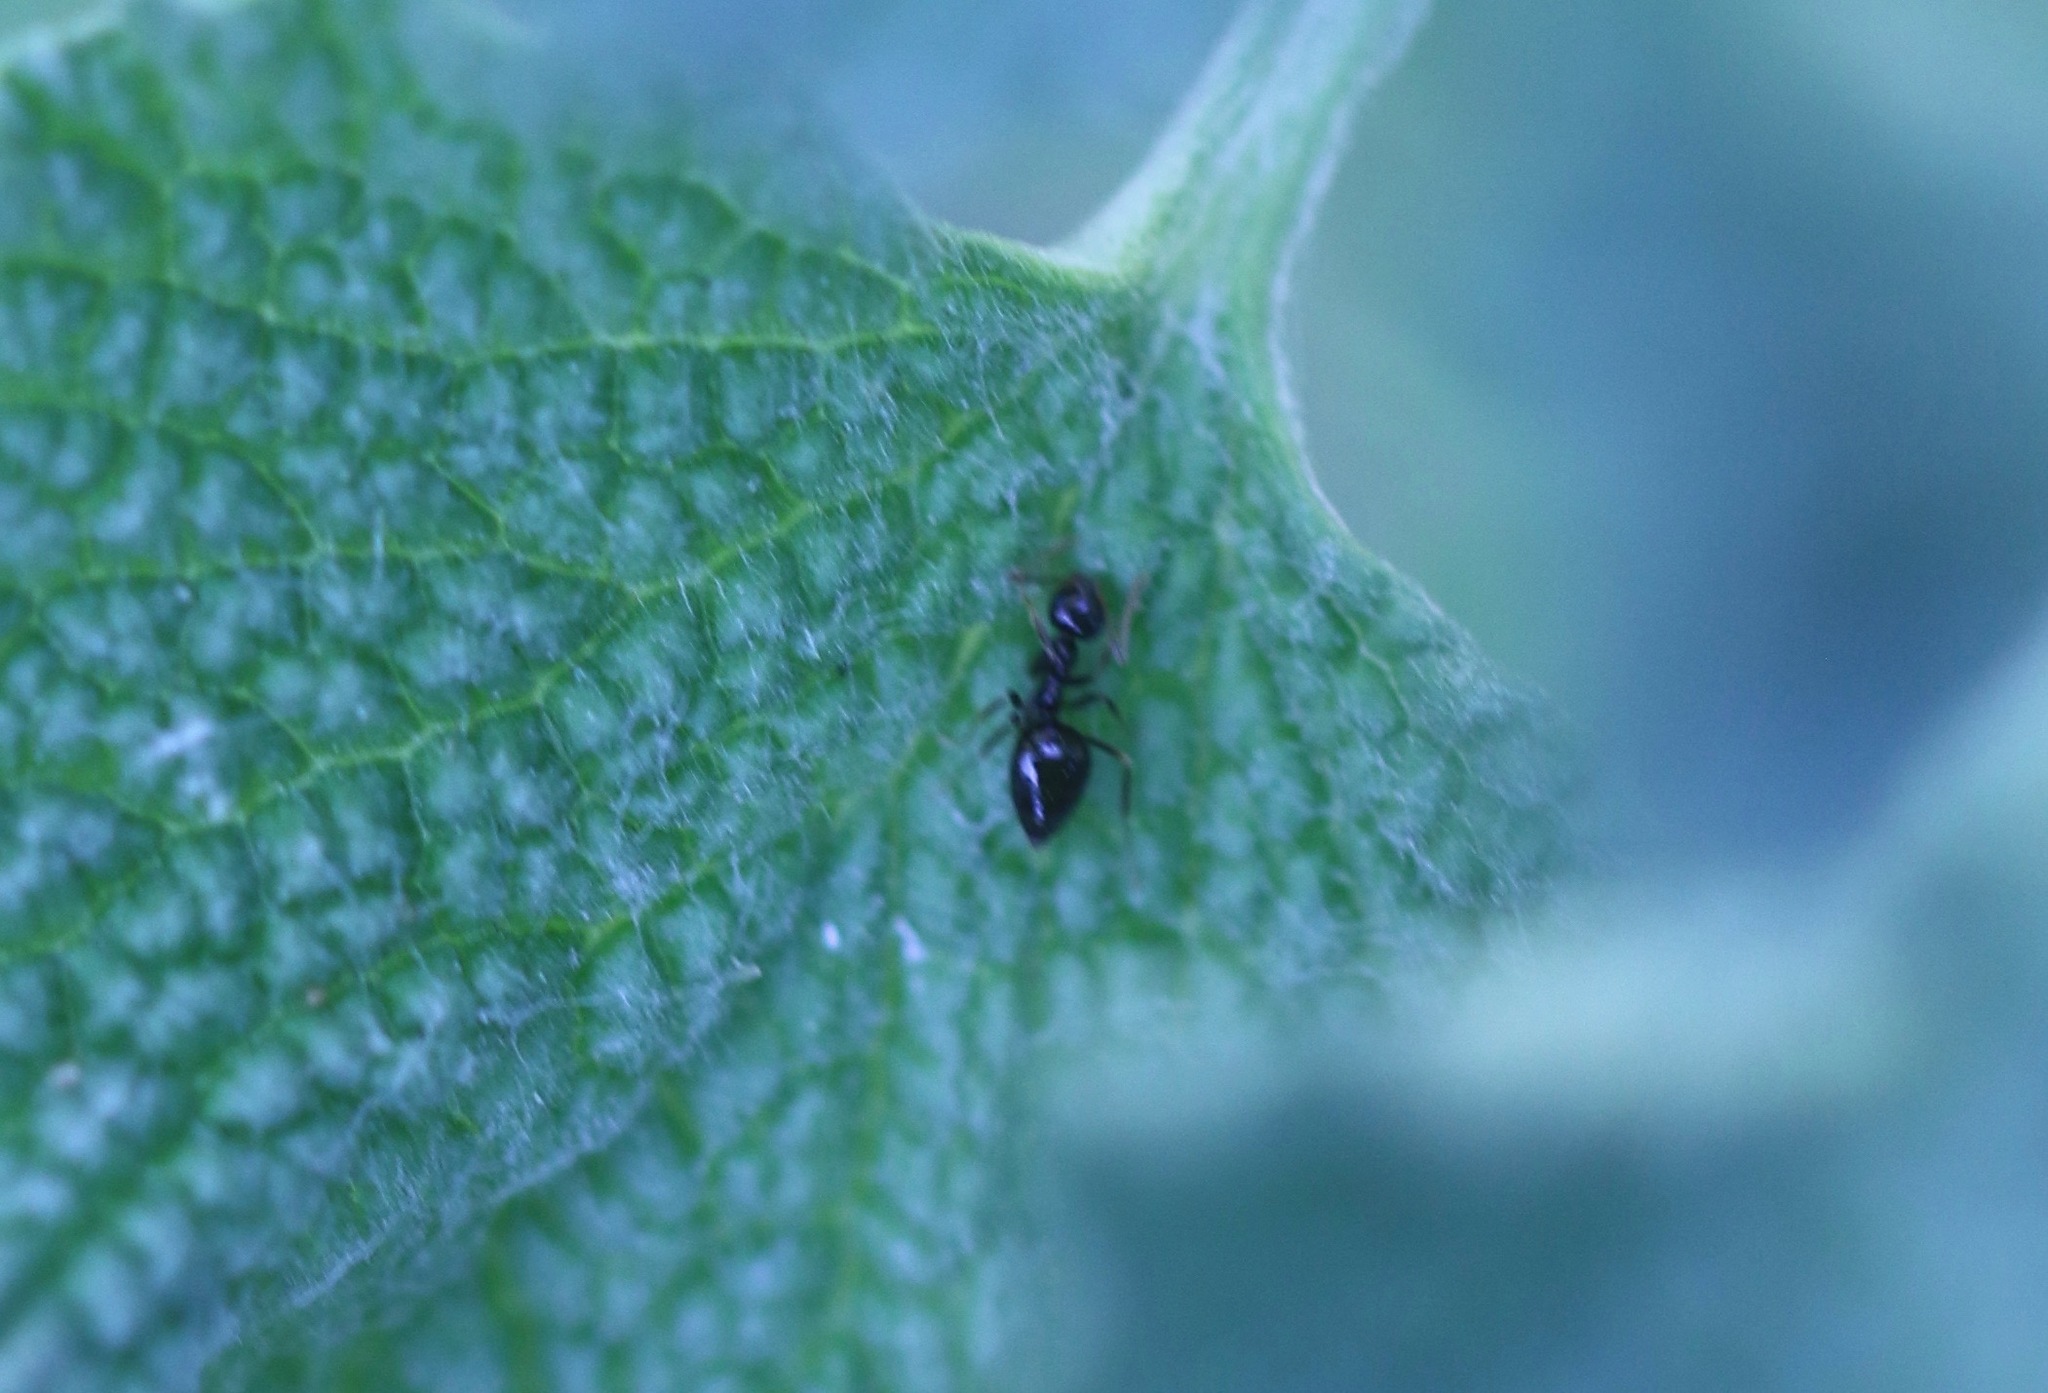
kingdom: Animalia
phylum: Arthropoda
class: Insecta
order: Hymenoptera
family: Formicidae
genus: Prenolepis
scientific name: Prenolepis imparis
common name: Small honey ant
